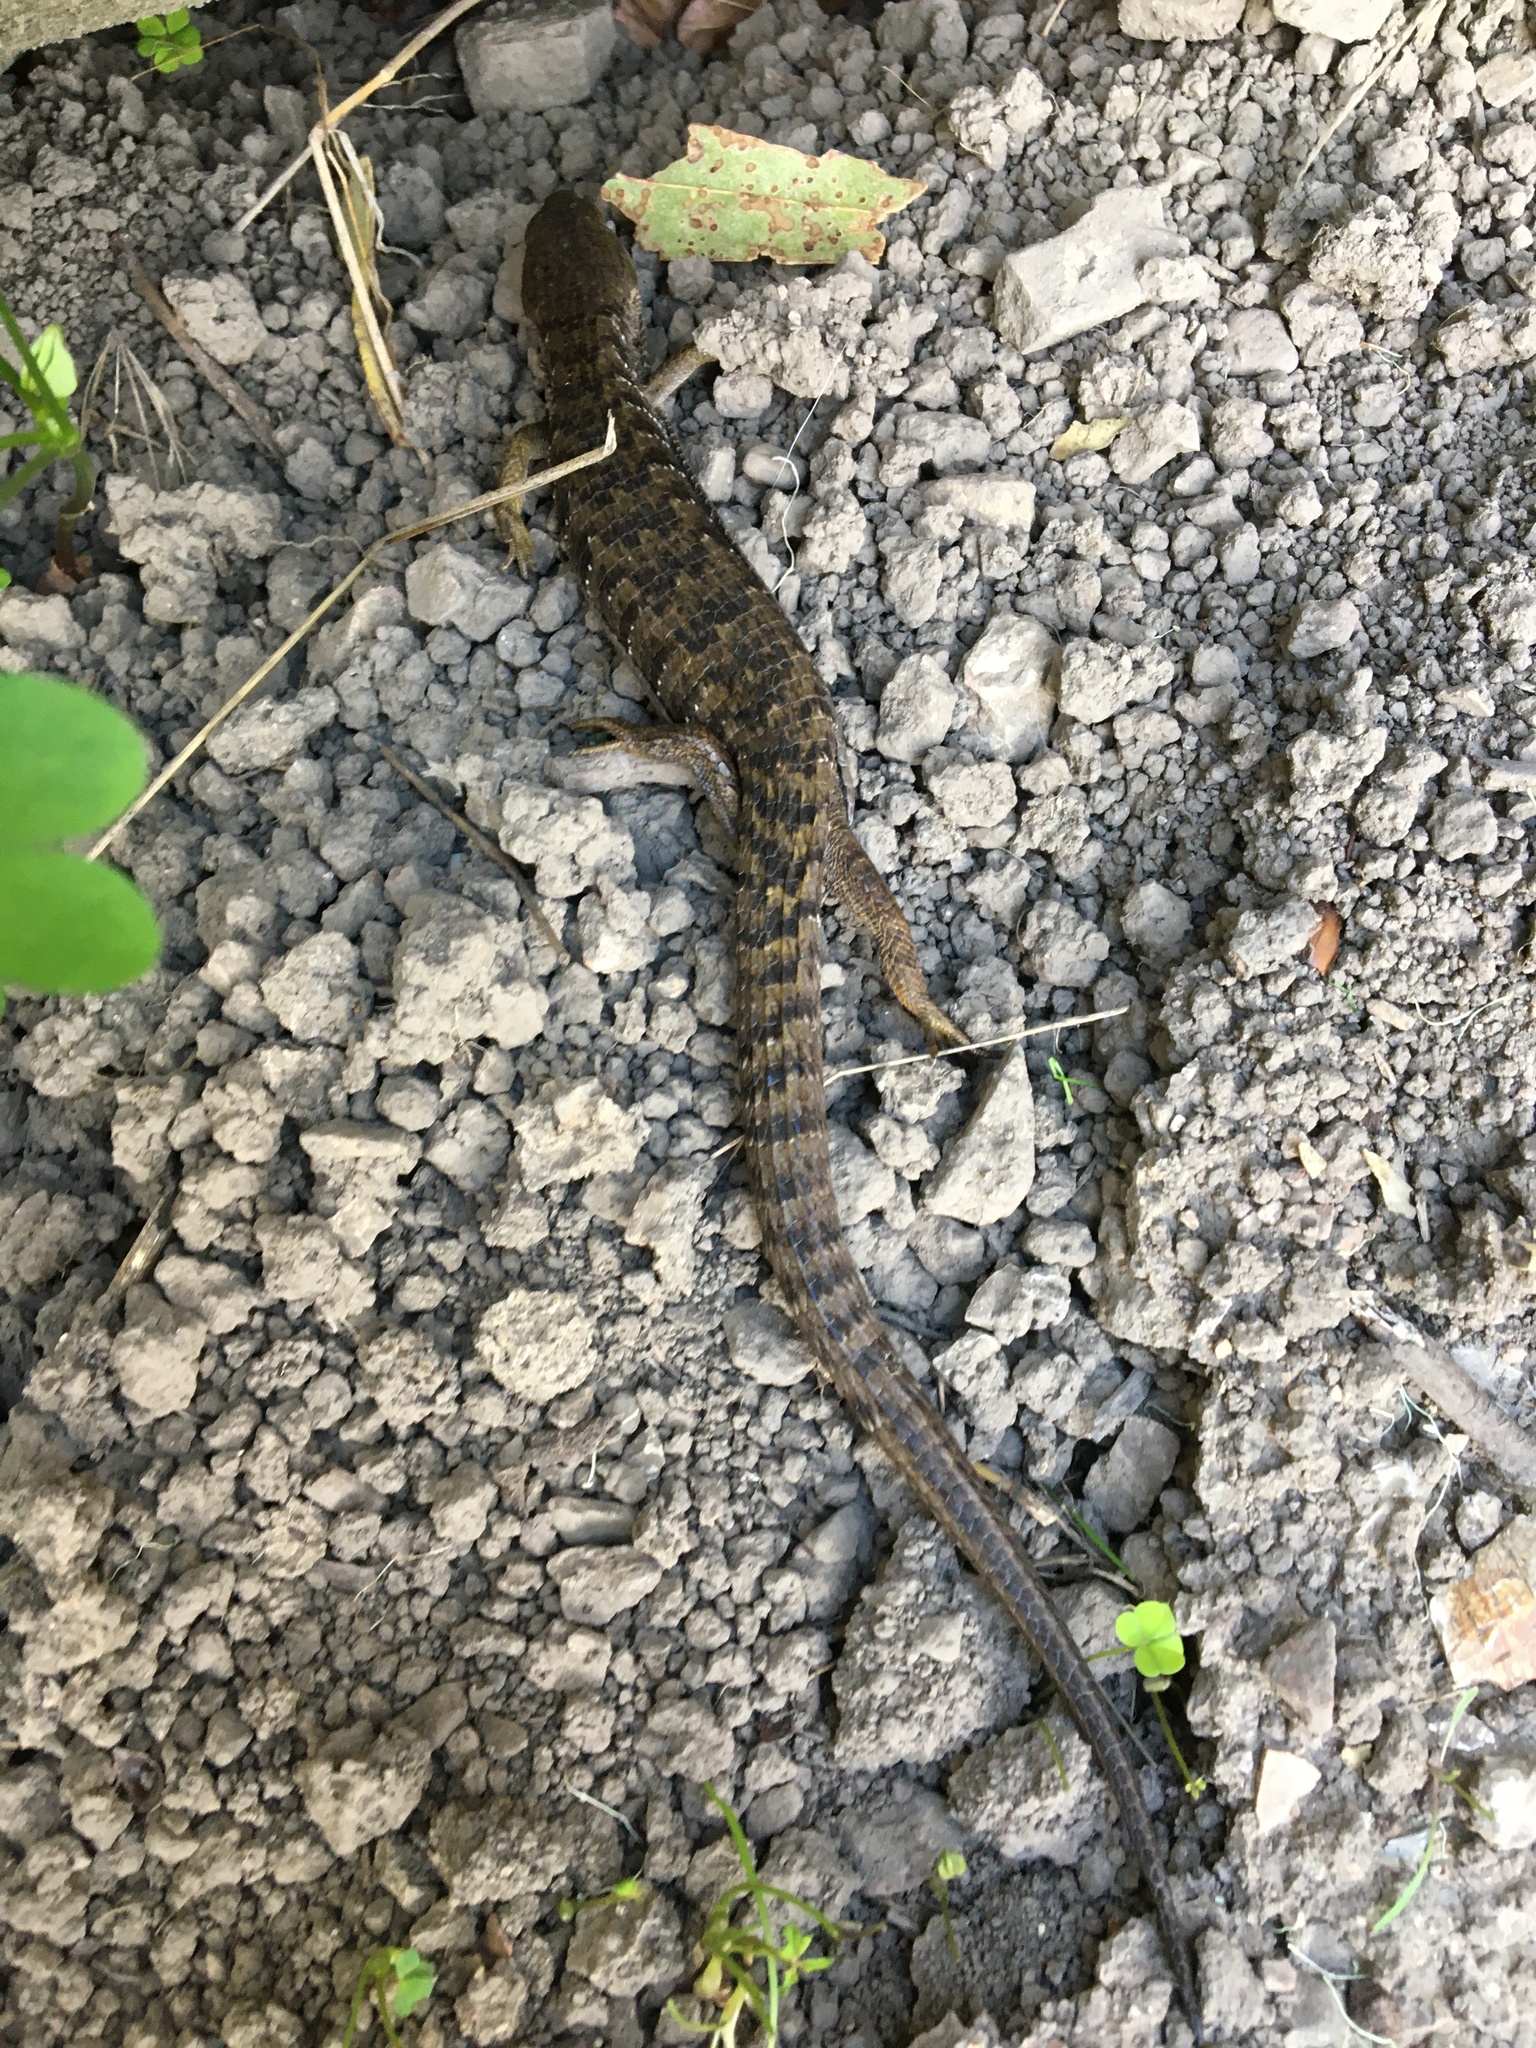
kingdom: Animalia
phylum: Chordata
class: Squamata
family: Anguidae
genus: Elgaria
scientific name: Elgaria multicarinata
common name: Southern alligator lizard
